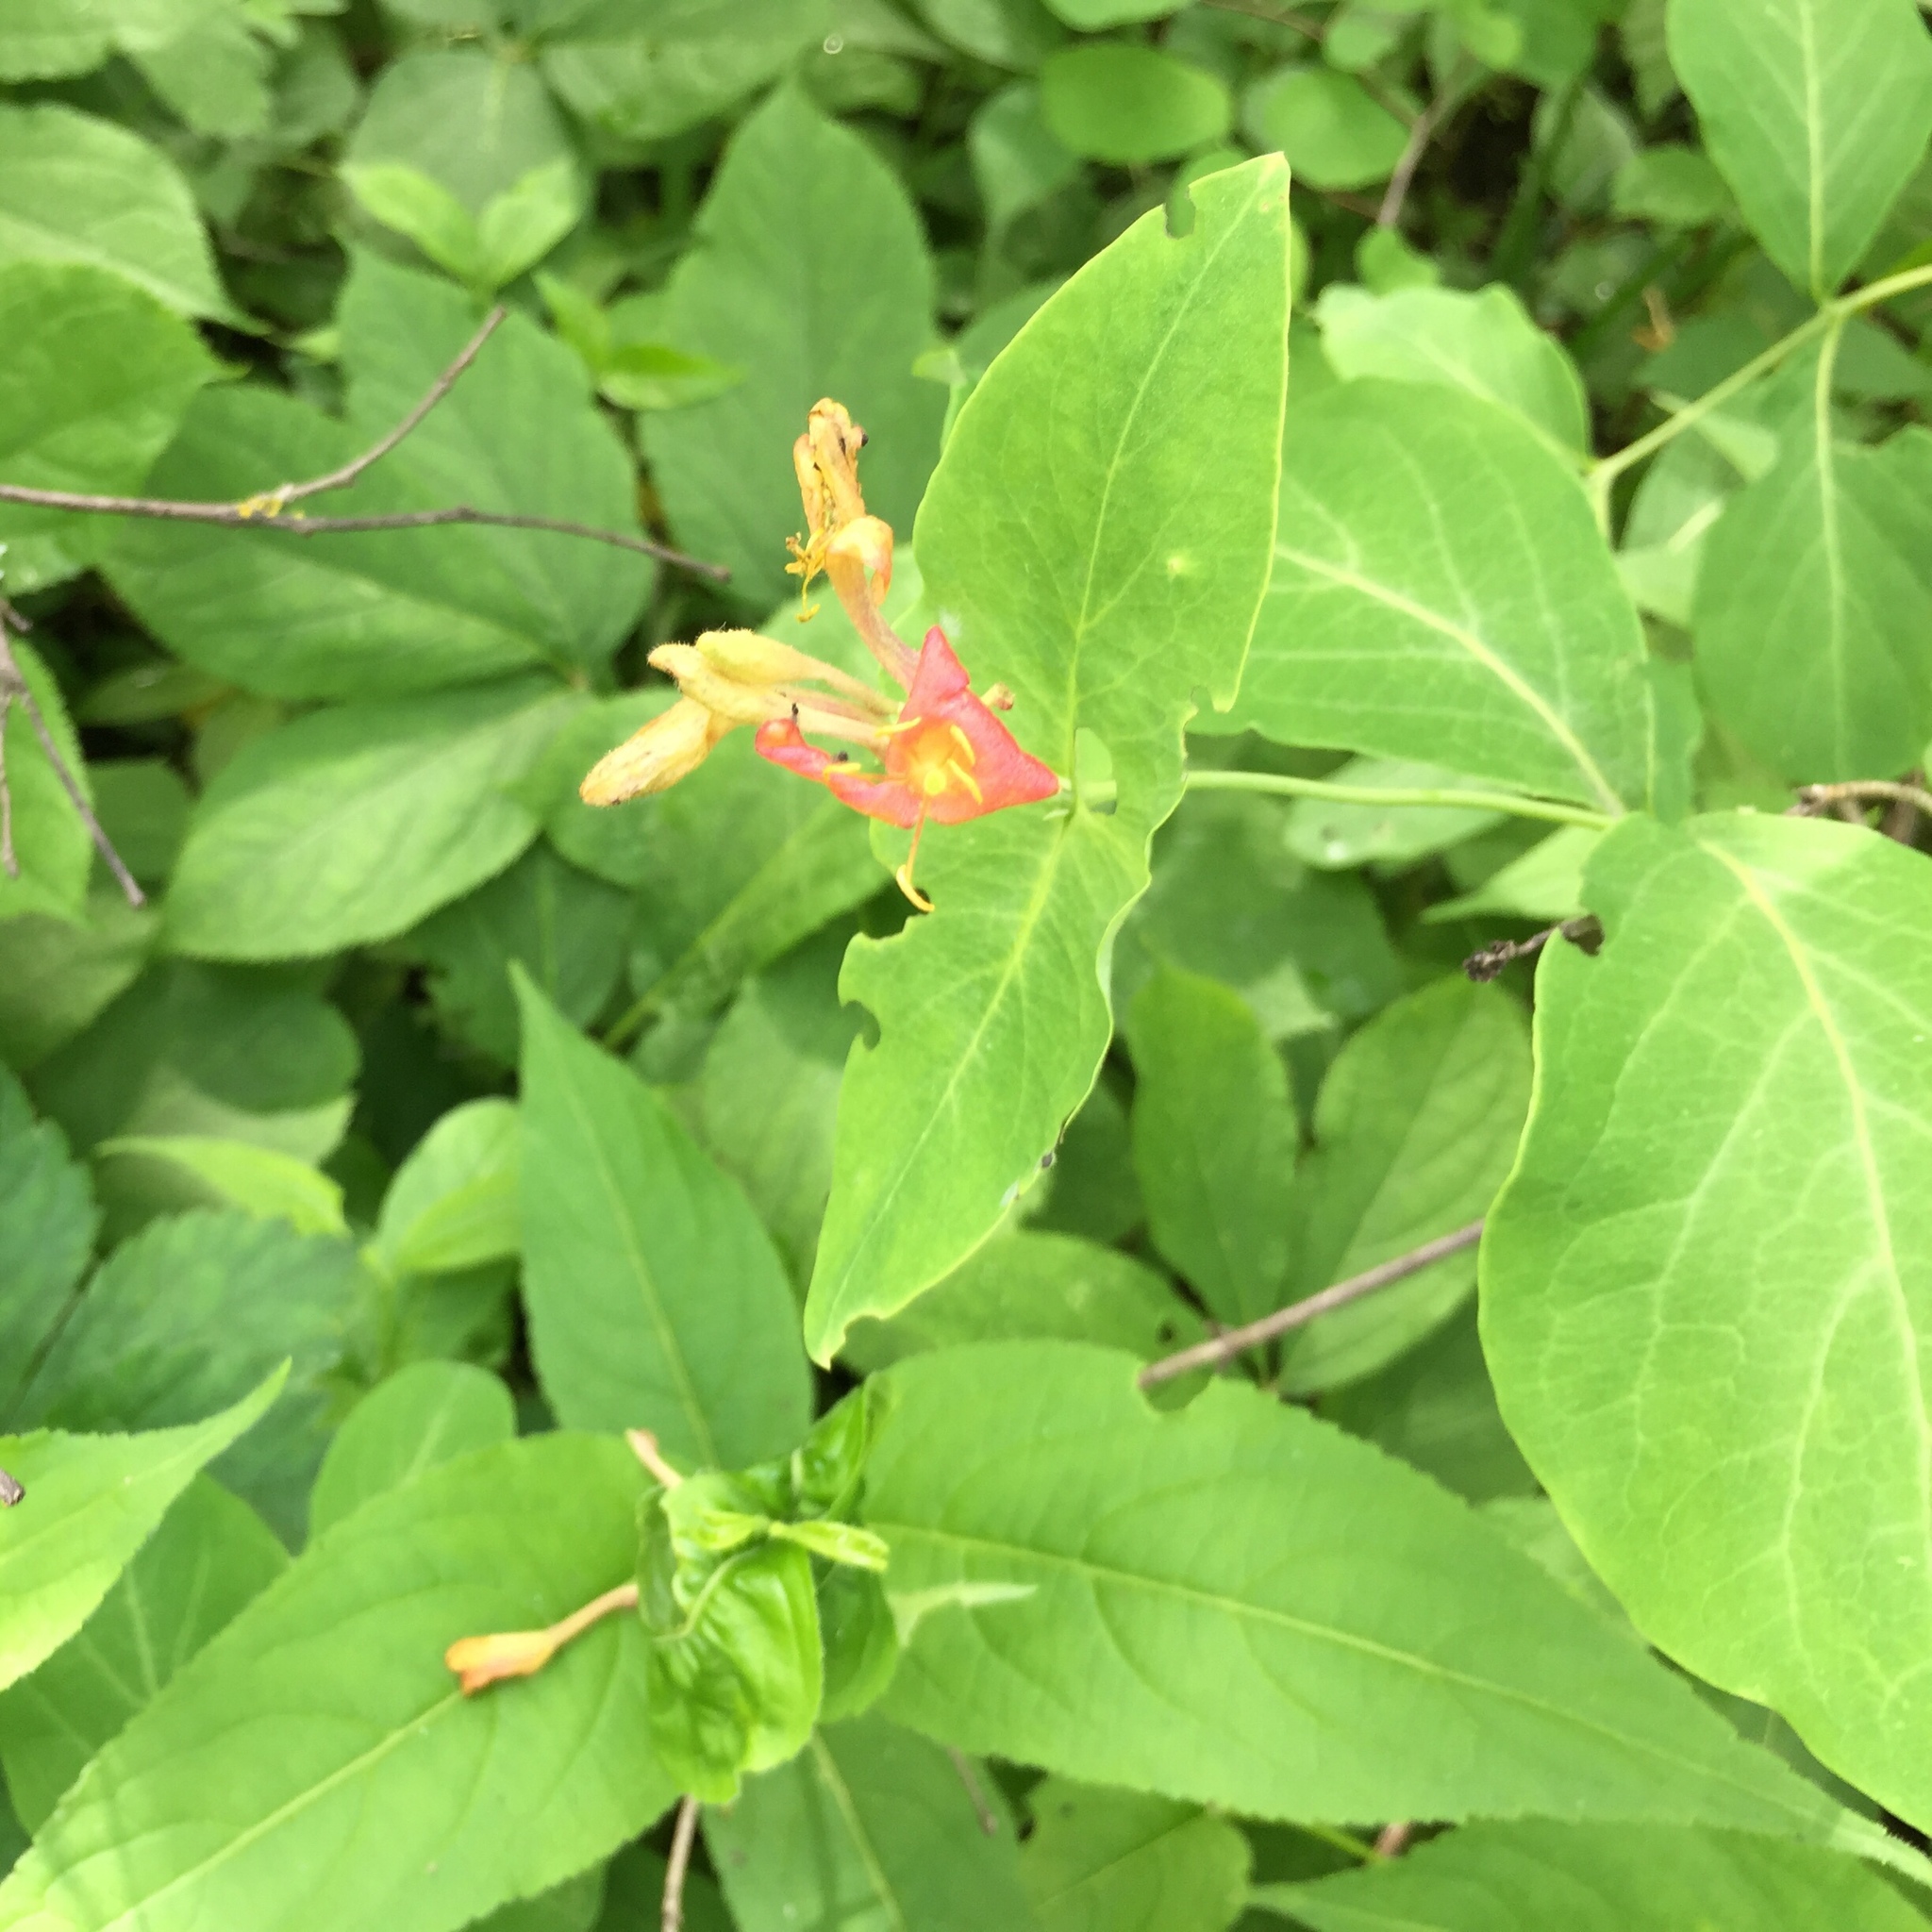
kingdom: Plantae
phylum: Tracheophyta
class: Magnoliopsida
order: Dipsacales
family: Caprifoliaceae
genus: Lonicera
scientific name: Lonicera dioica
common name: Limber honeysuckle
